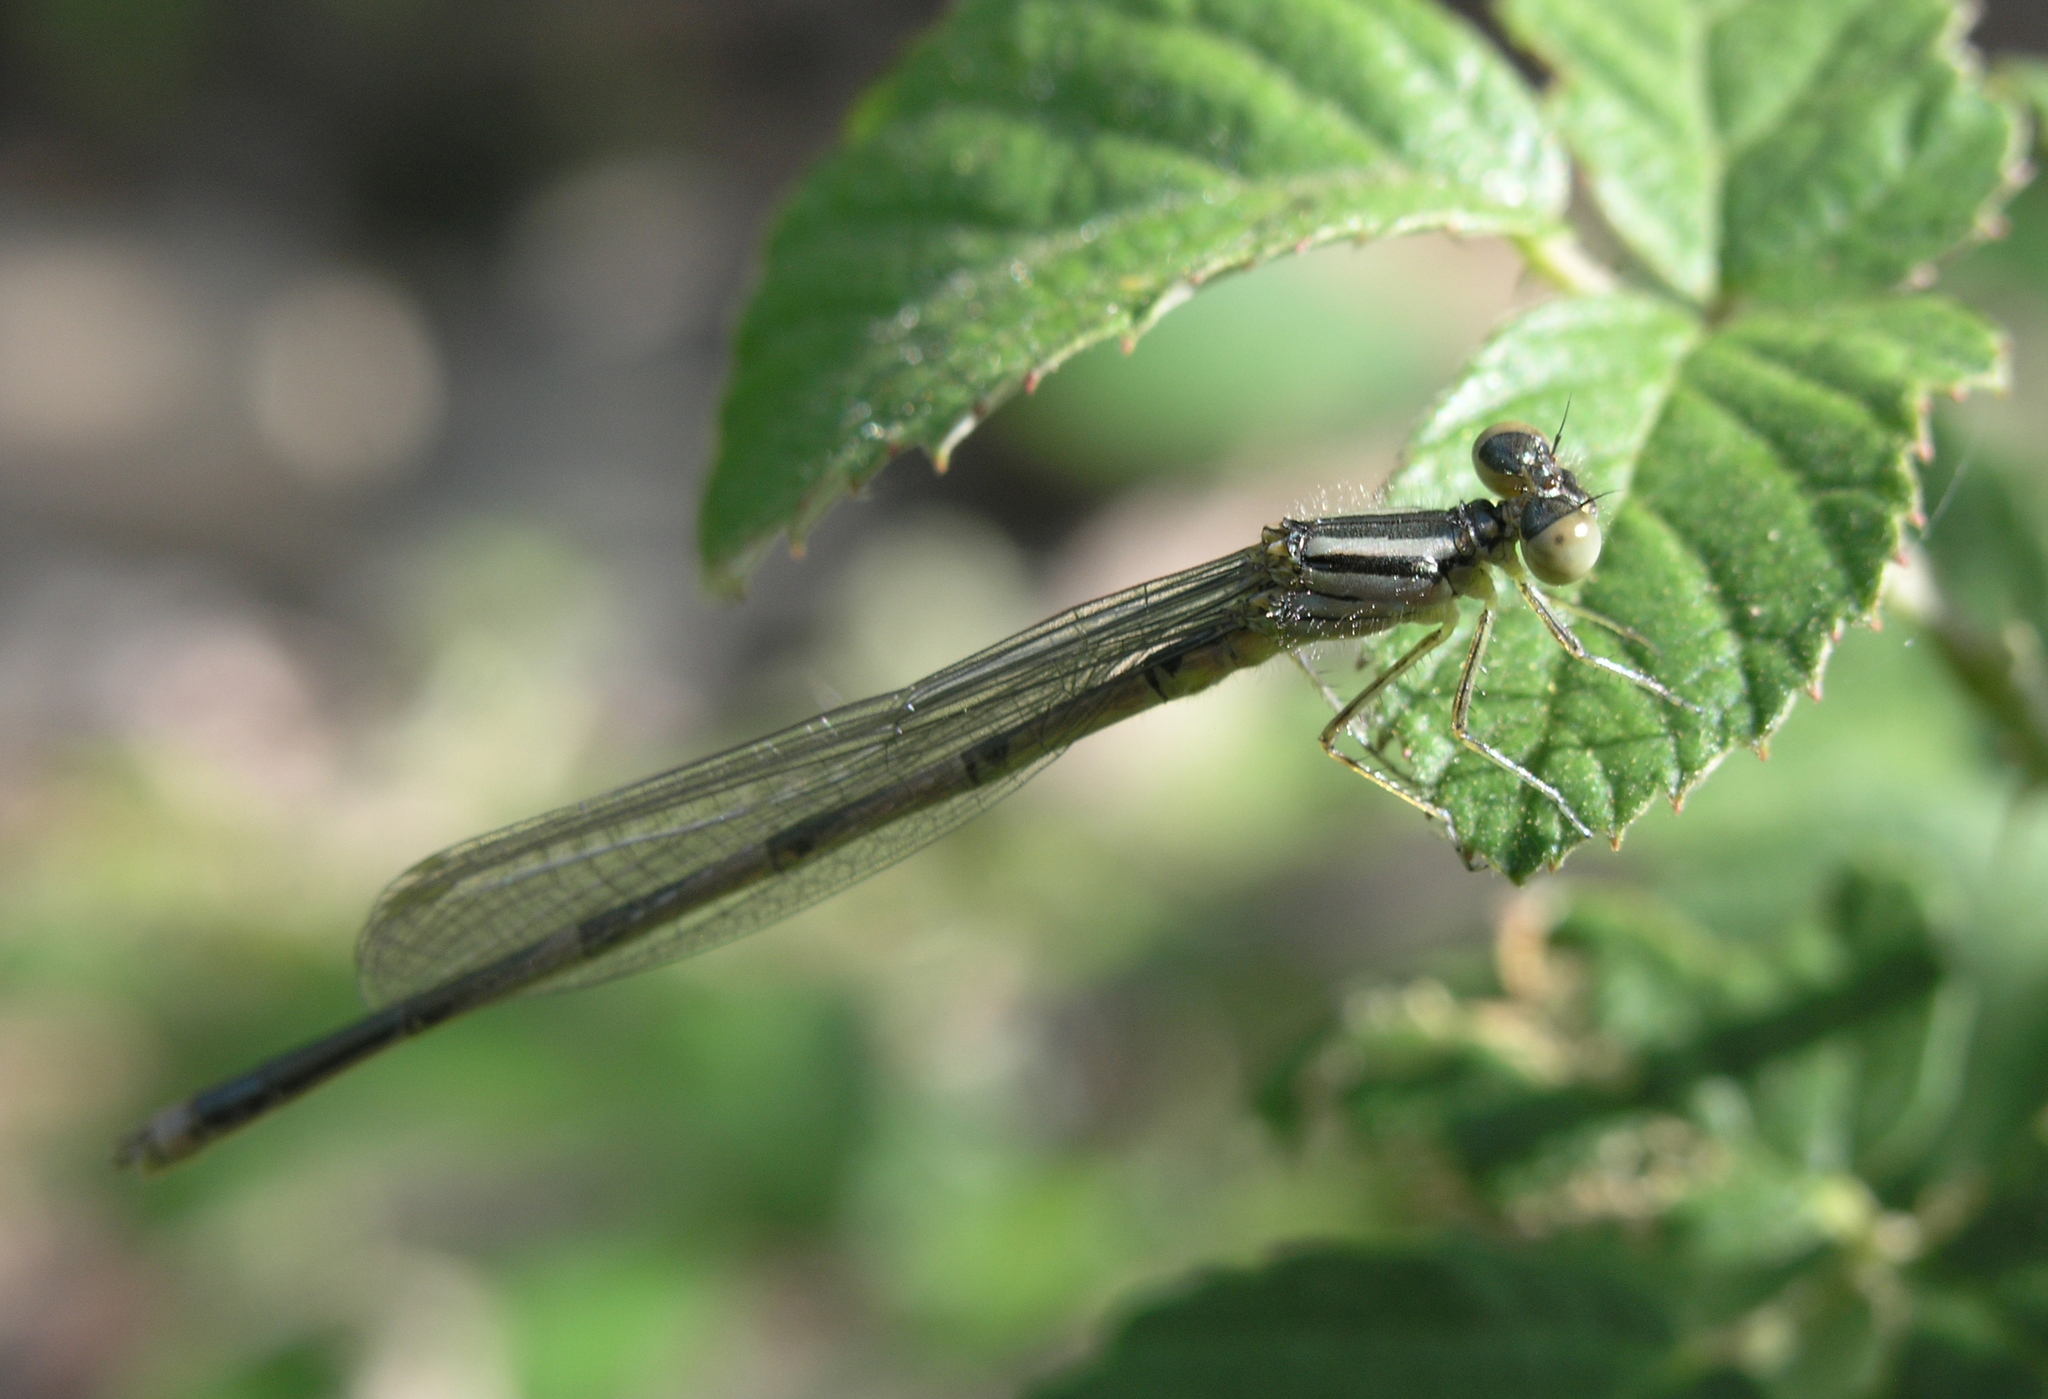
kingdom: Animalia
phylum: Arthropoda
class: Insecta
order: Odonata
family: Coenagrionidae
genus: Erythromma
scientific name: Erythromma lindenii
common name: Blue-eye
